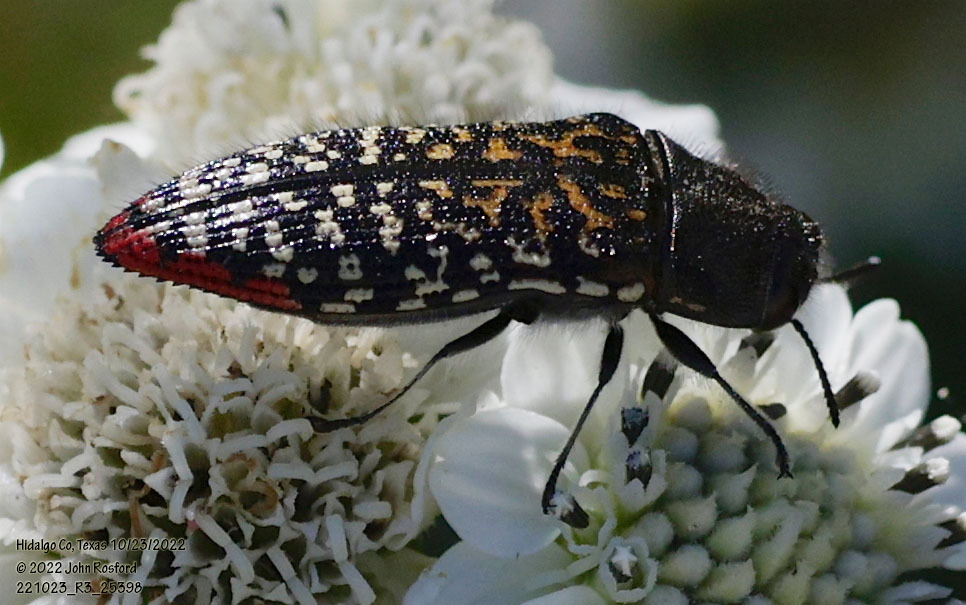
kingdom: Animalia
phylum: Arthropoda
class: Insecta
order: Coleoptera
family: Buprestidae
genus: Acmaeodera
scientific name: Acmaeodera haemorrhoa
